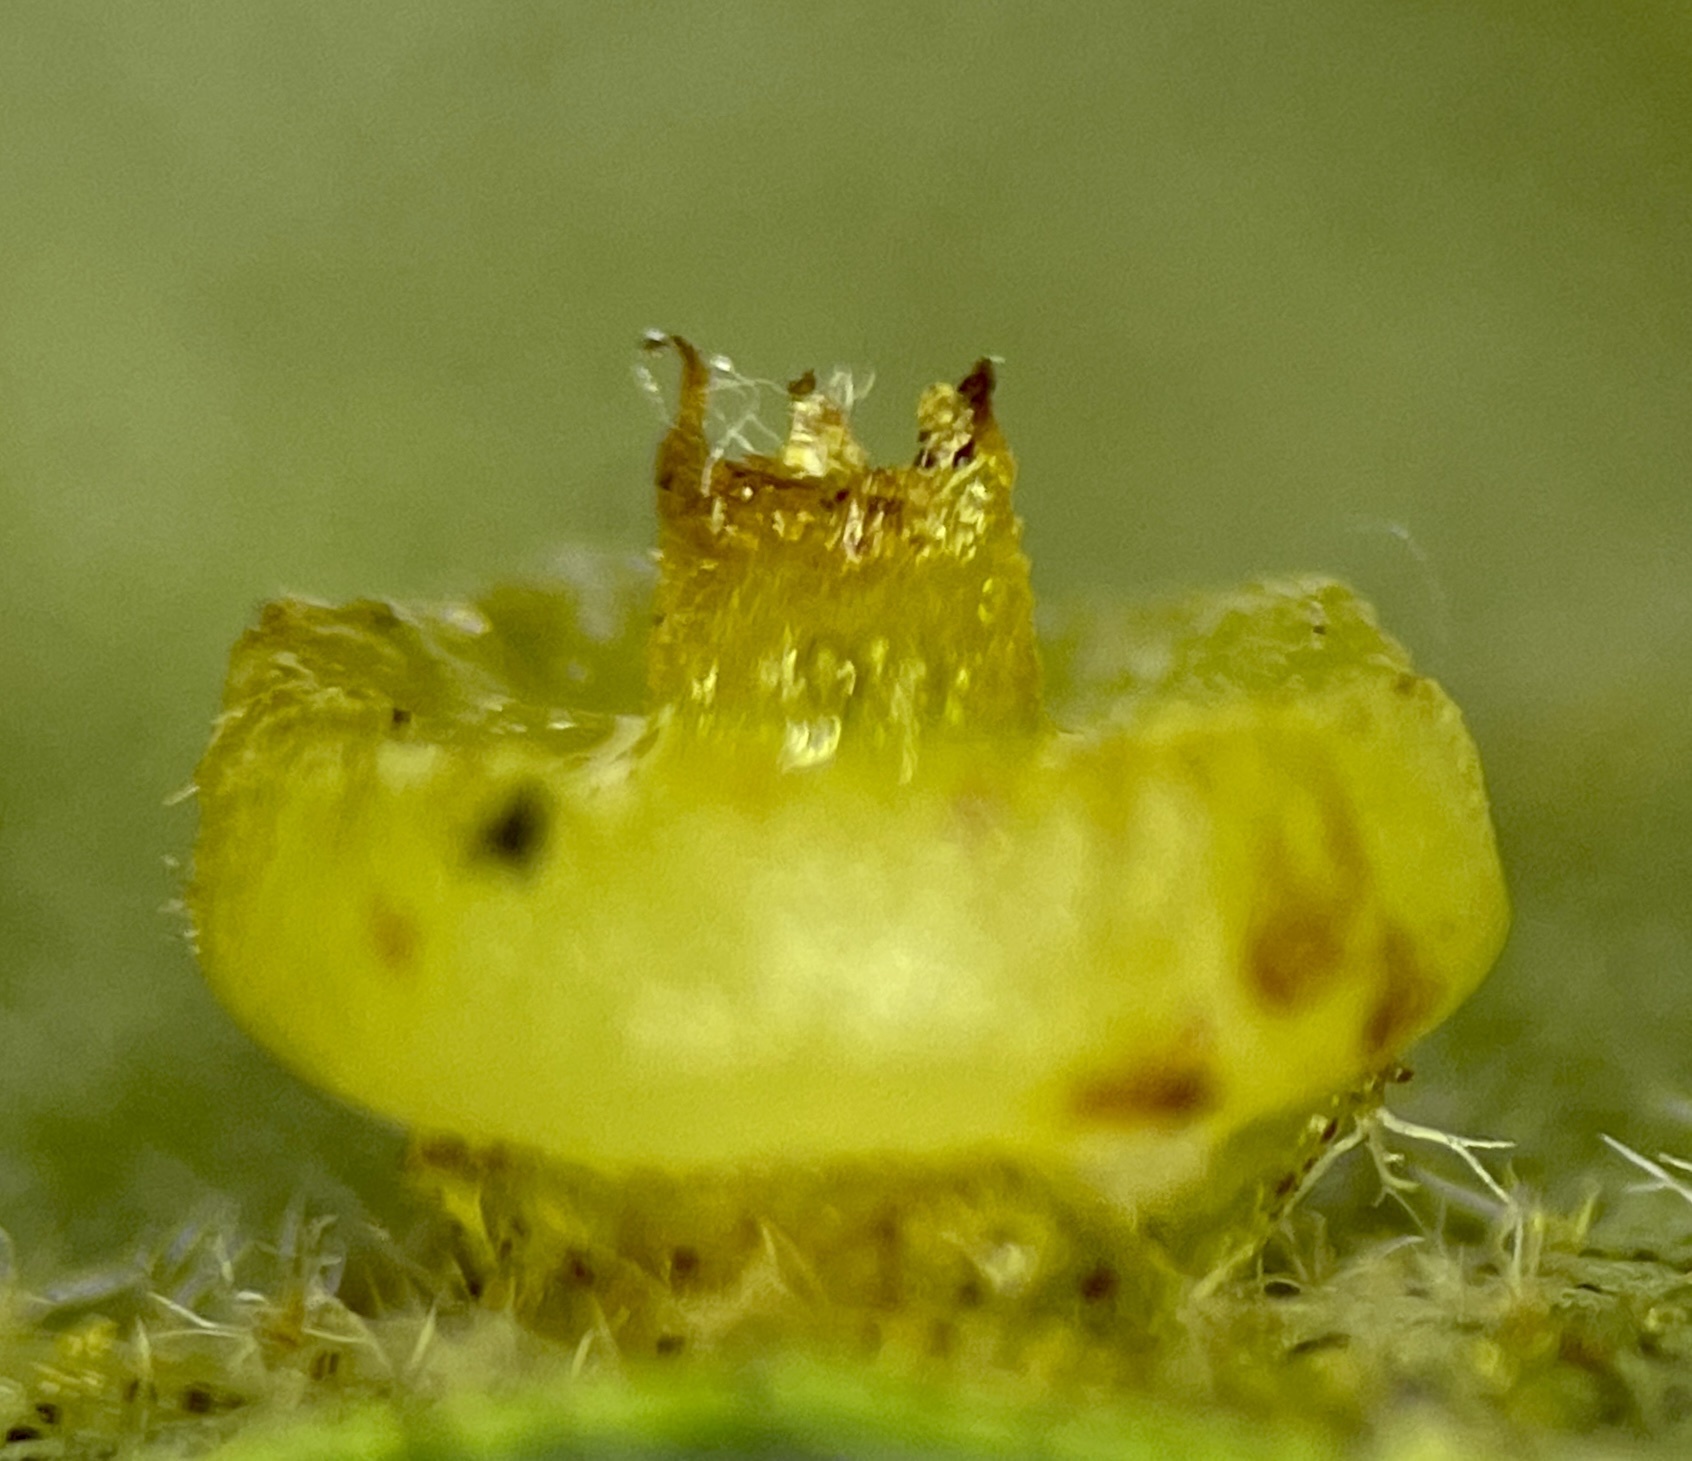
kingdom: Animalia
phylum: Arthropoda
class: Insecta
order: Diptera
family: Cecidomyiidae
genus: Caryomyia
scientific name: Caryomyia melicrustum
